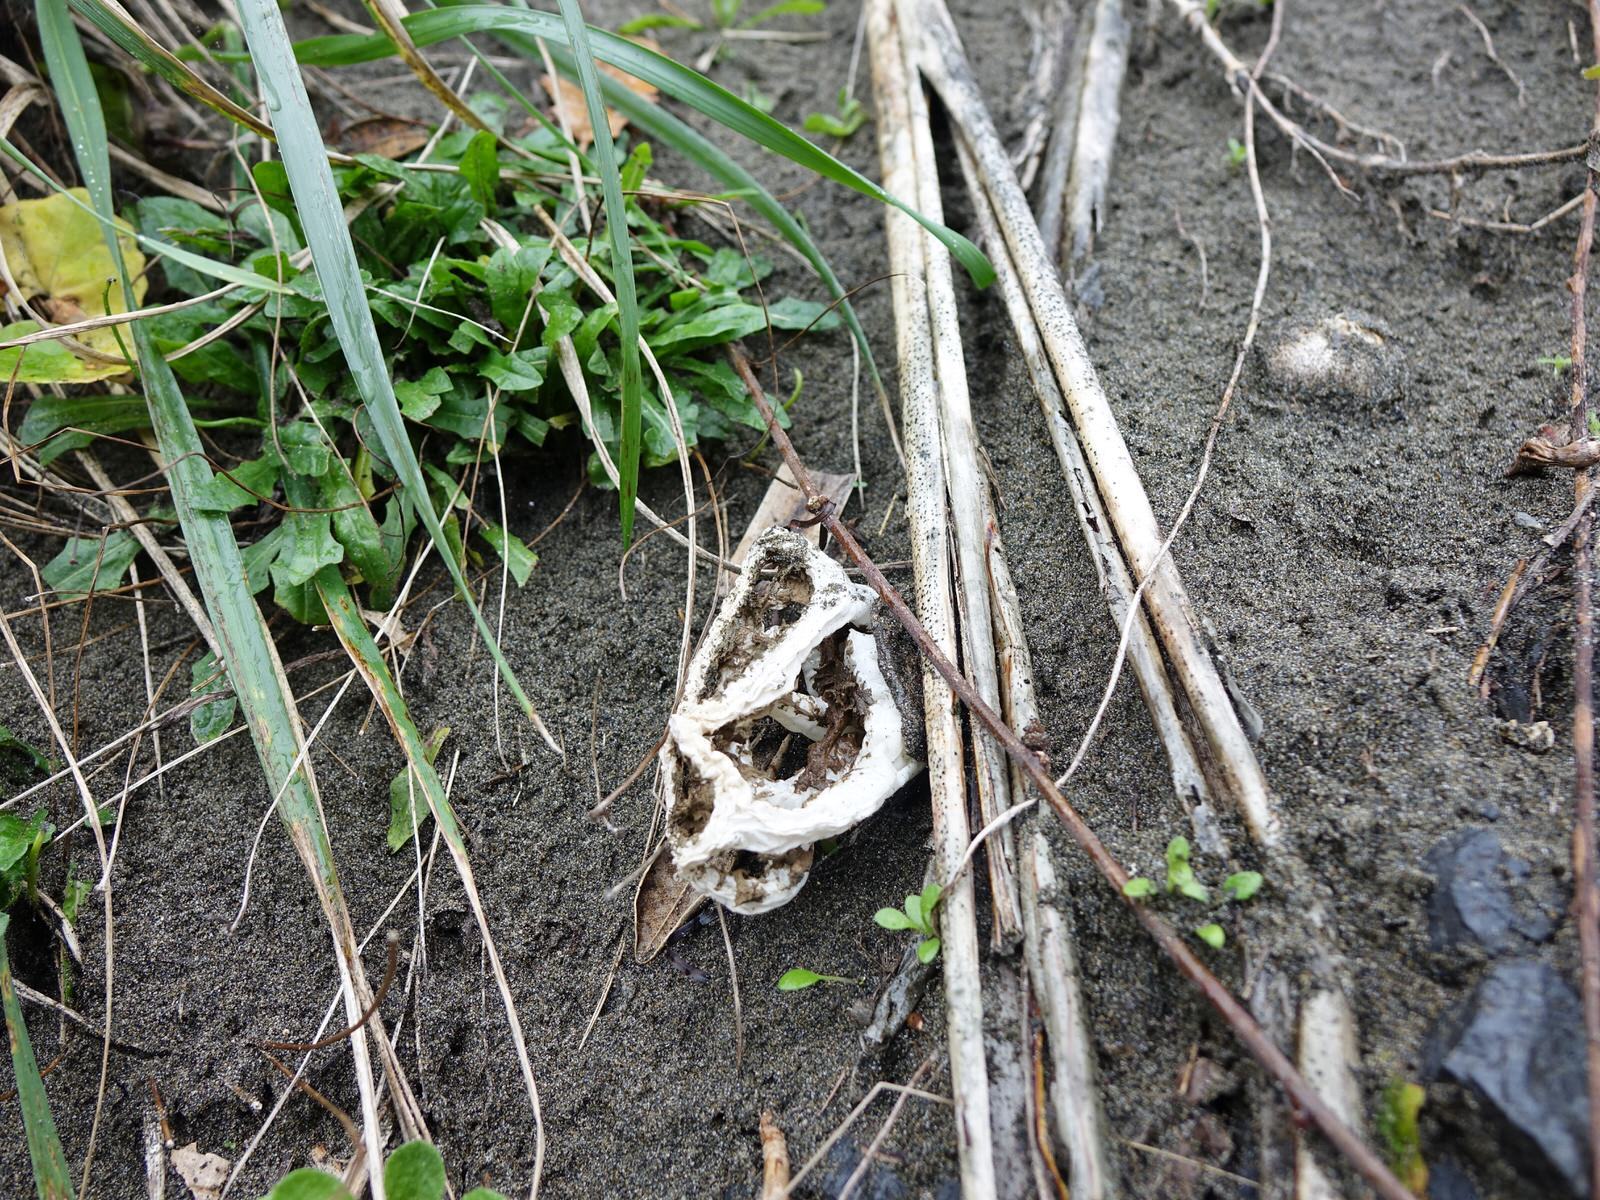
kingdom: Fungi
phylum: Basidiomycota
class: Agaricomycetes
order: Phallales
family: Phallaceae
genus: Ileodictyon
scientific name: Ileodictyon cibarium
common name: Basket fungus
